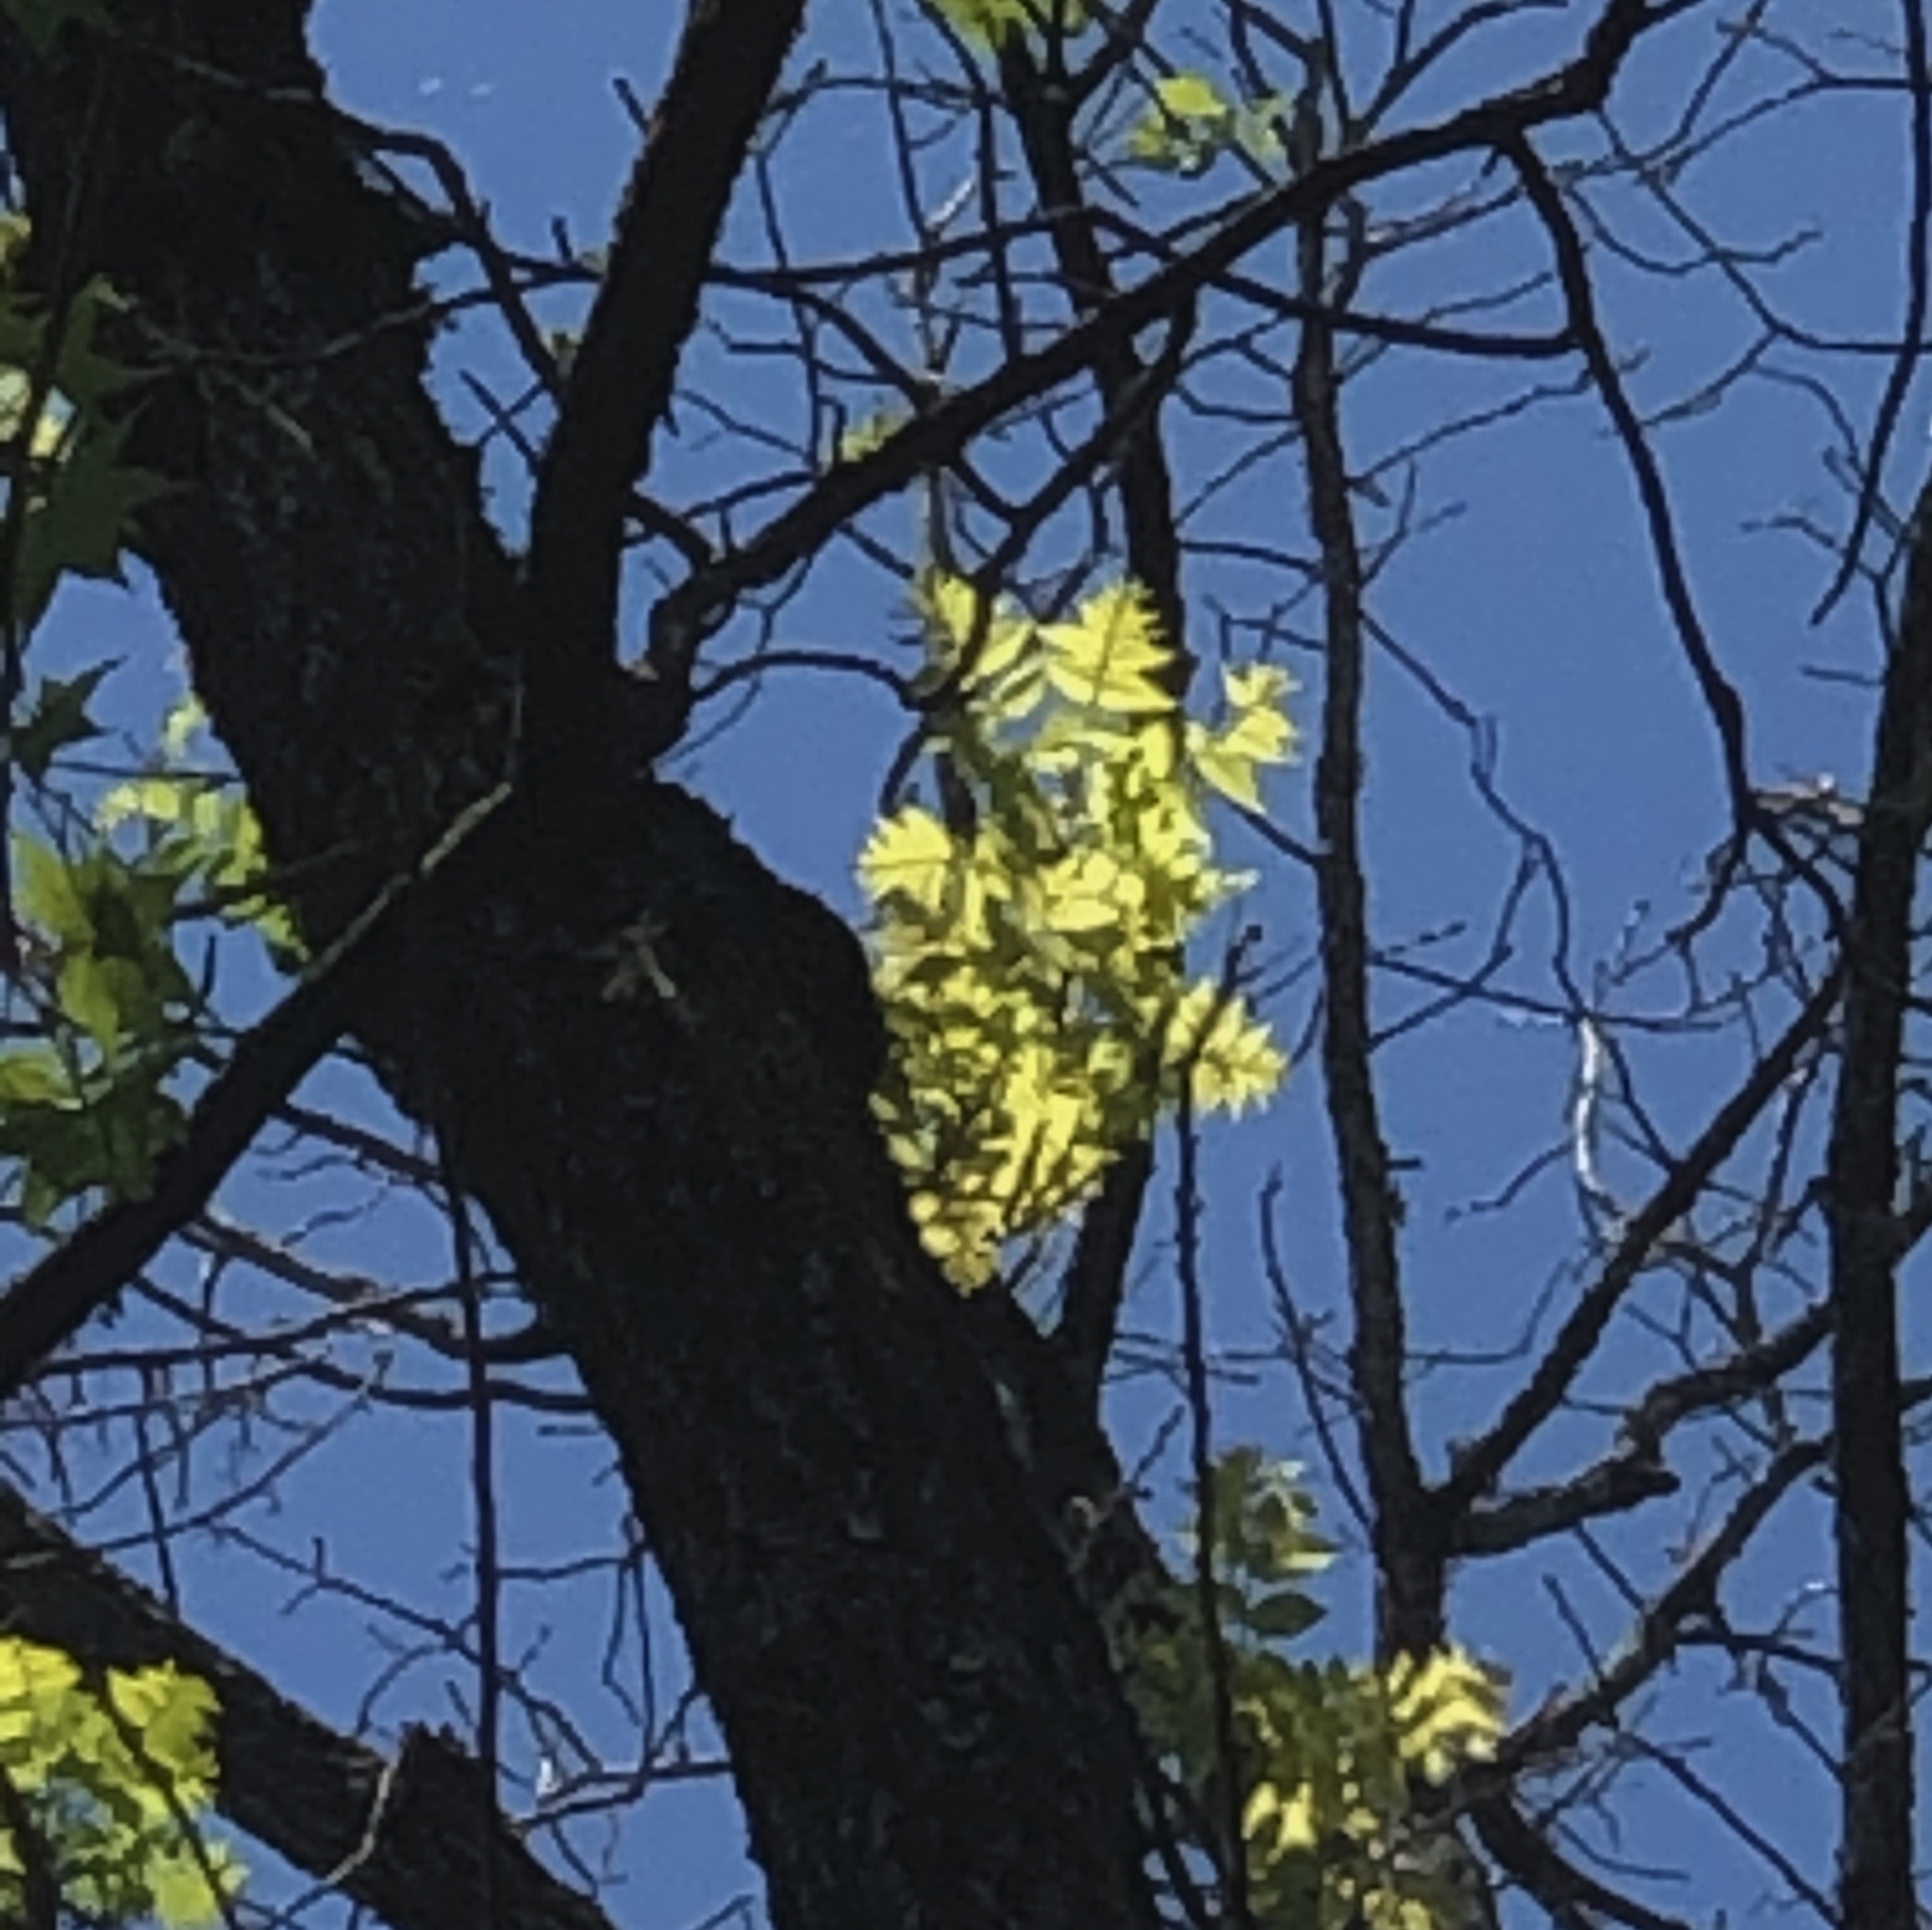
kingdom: Plantae
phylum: Tracheophyta
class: Magnoliopsida
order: Fagales
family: Juglandaceae
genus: Juglans
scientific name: Juglans nigra
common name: Black walnut
